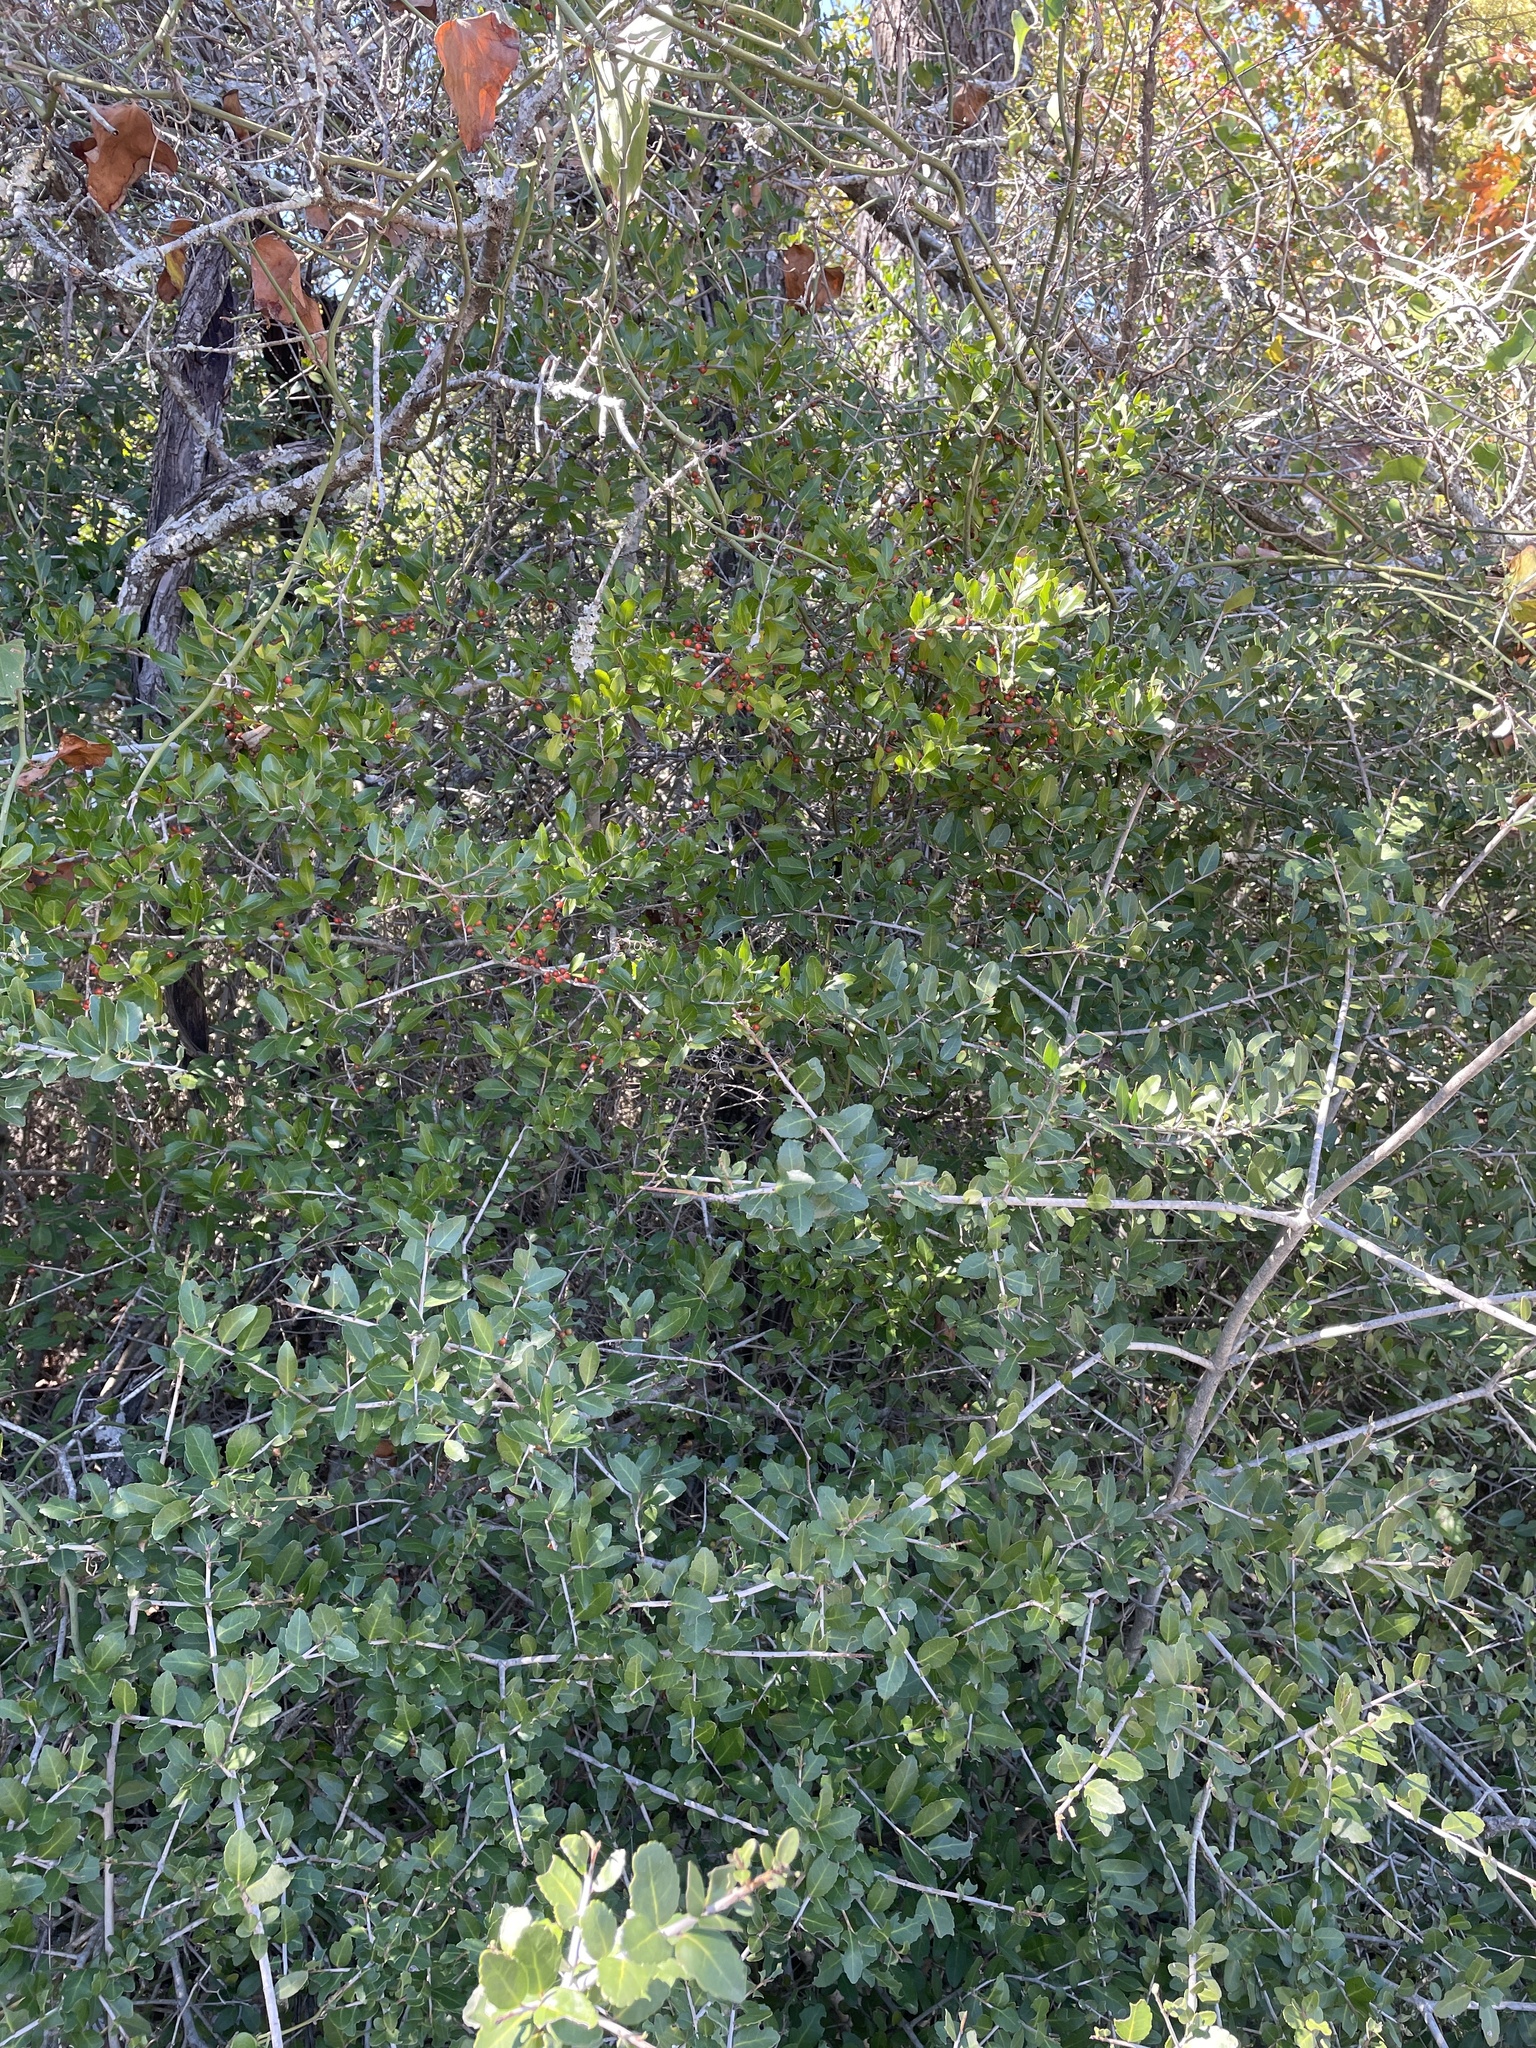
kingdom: Plantae
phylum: Tracheophyta
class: Magnoliopsida
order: Aquifoliales
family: Aquifoliaceae
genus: Ilex
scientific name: Ilex vomitoria
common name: Yaupon holly
